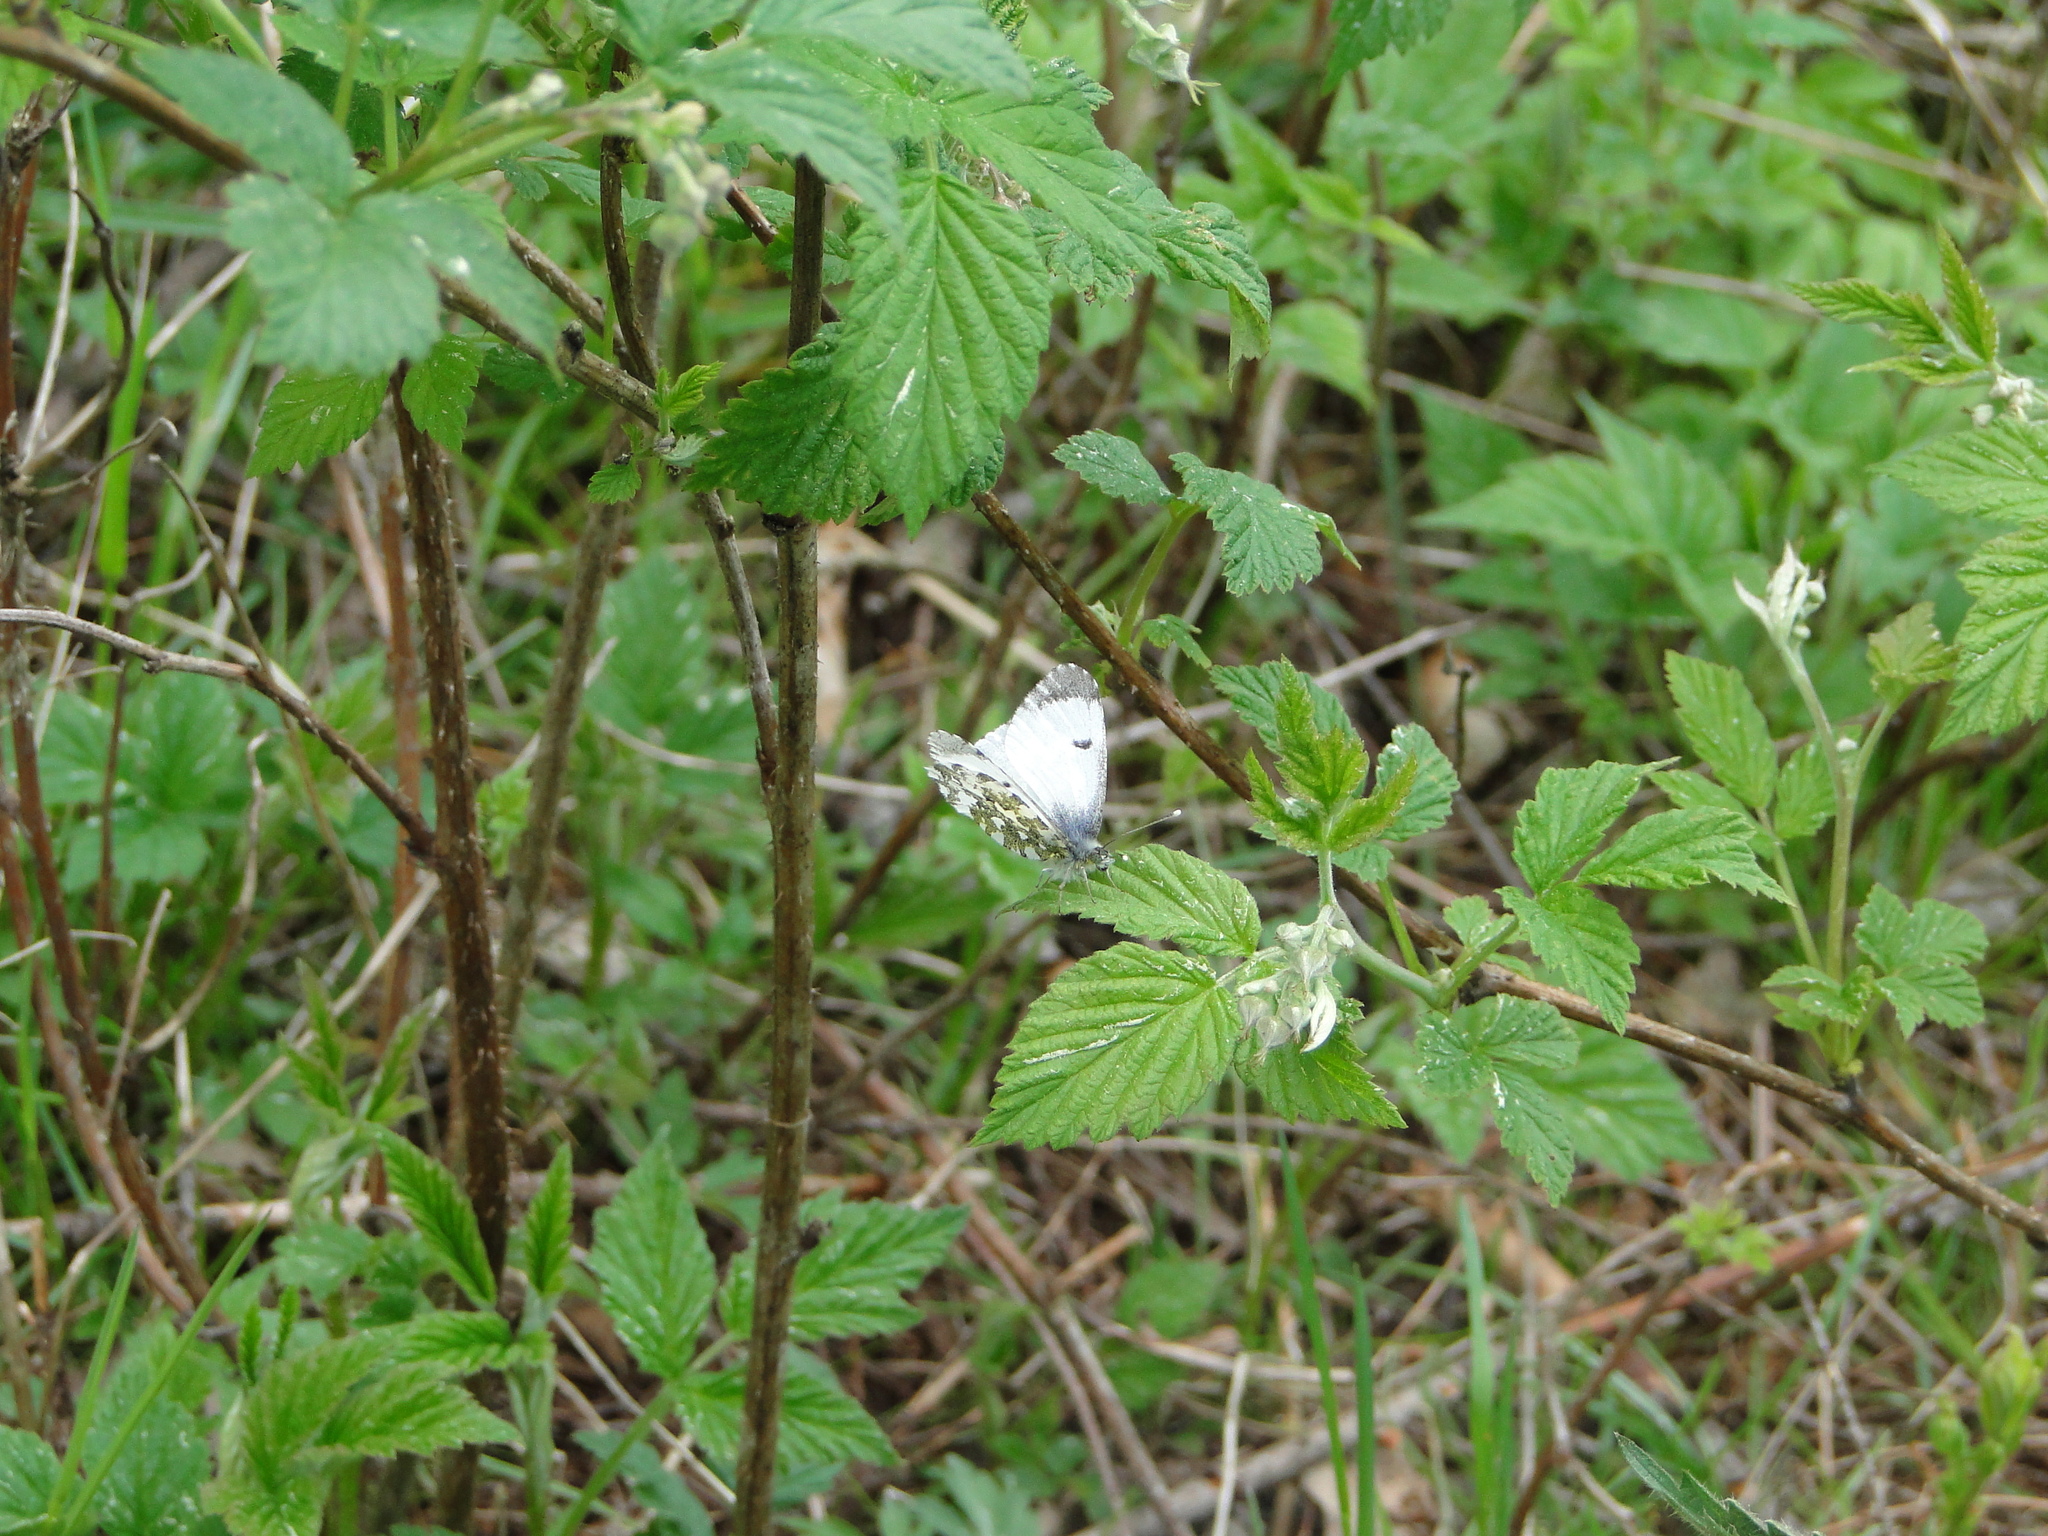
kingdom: Animalia
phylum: Arthropoda
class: Insecta
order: Lepidoptera
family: Pieridae
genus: Anthocharis
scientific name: Anthocharis cardamines
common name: Orange-tip
